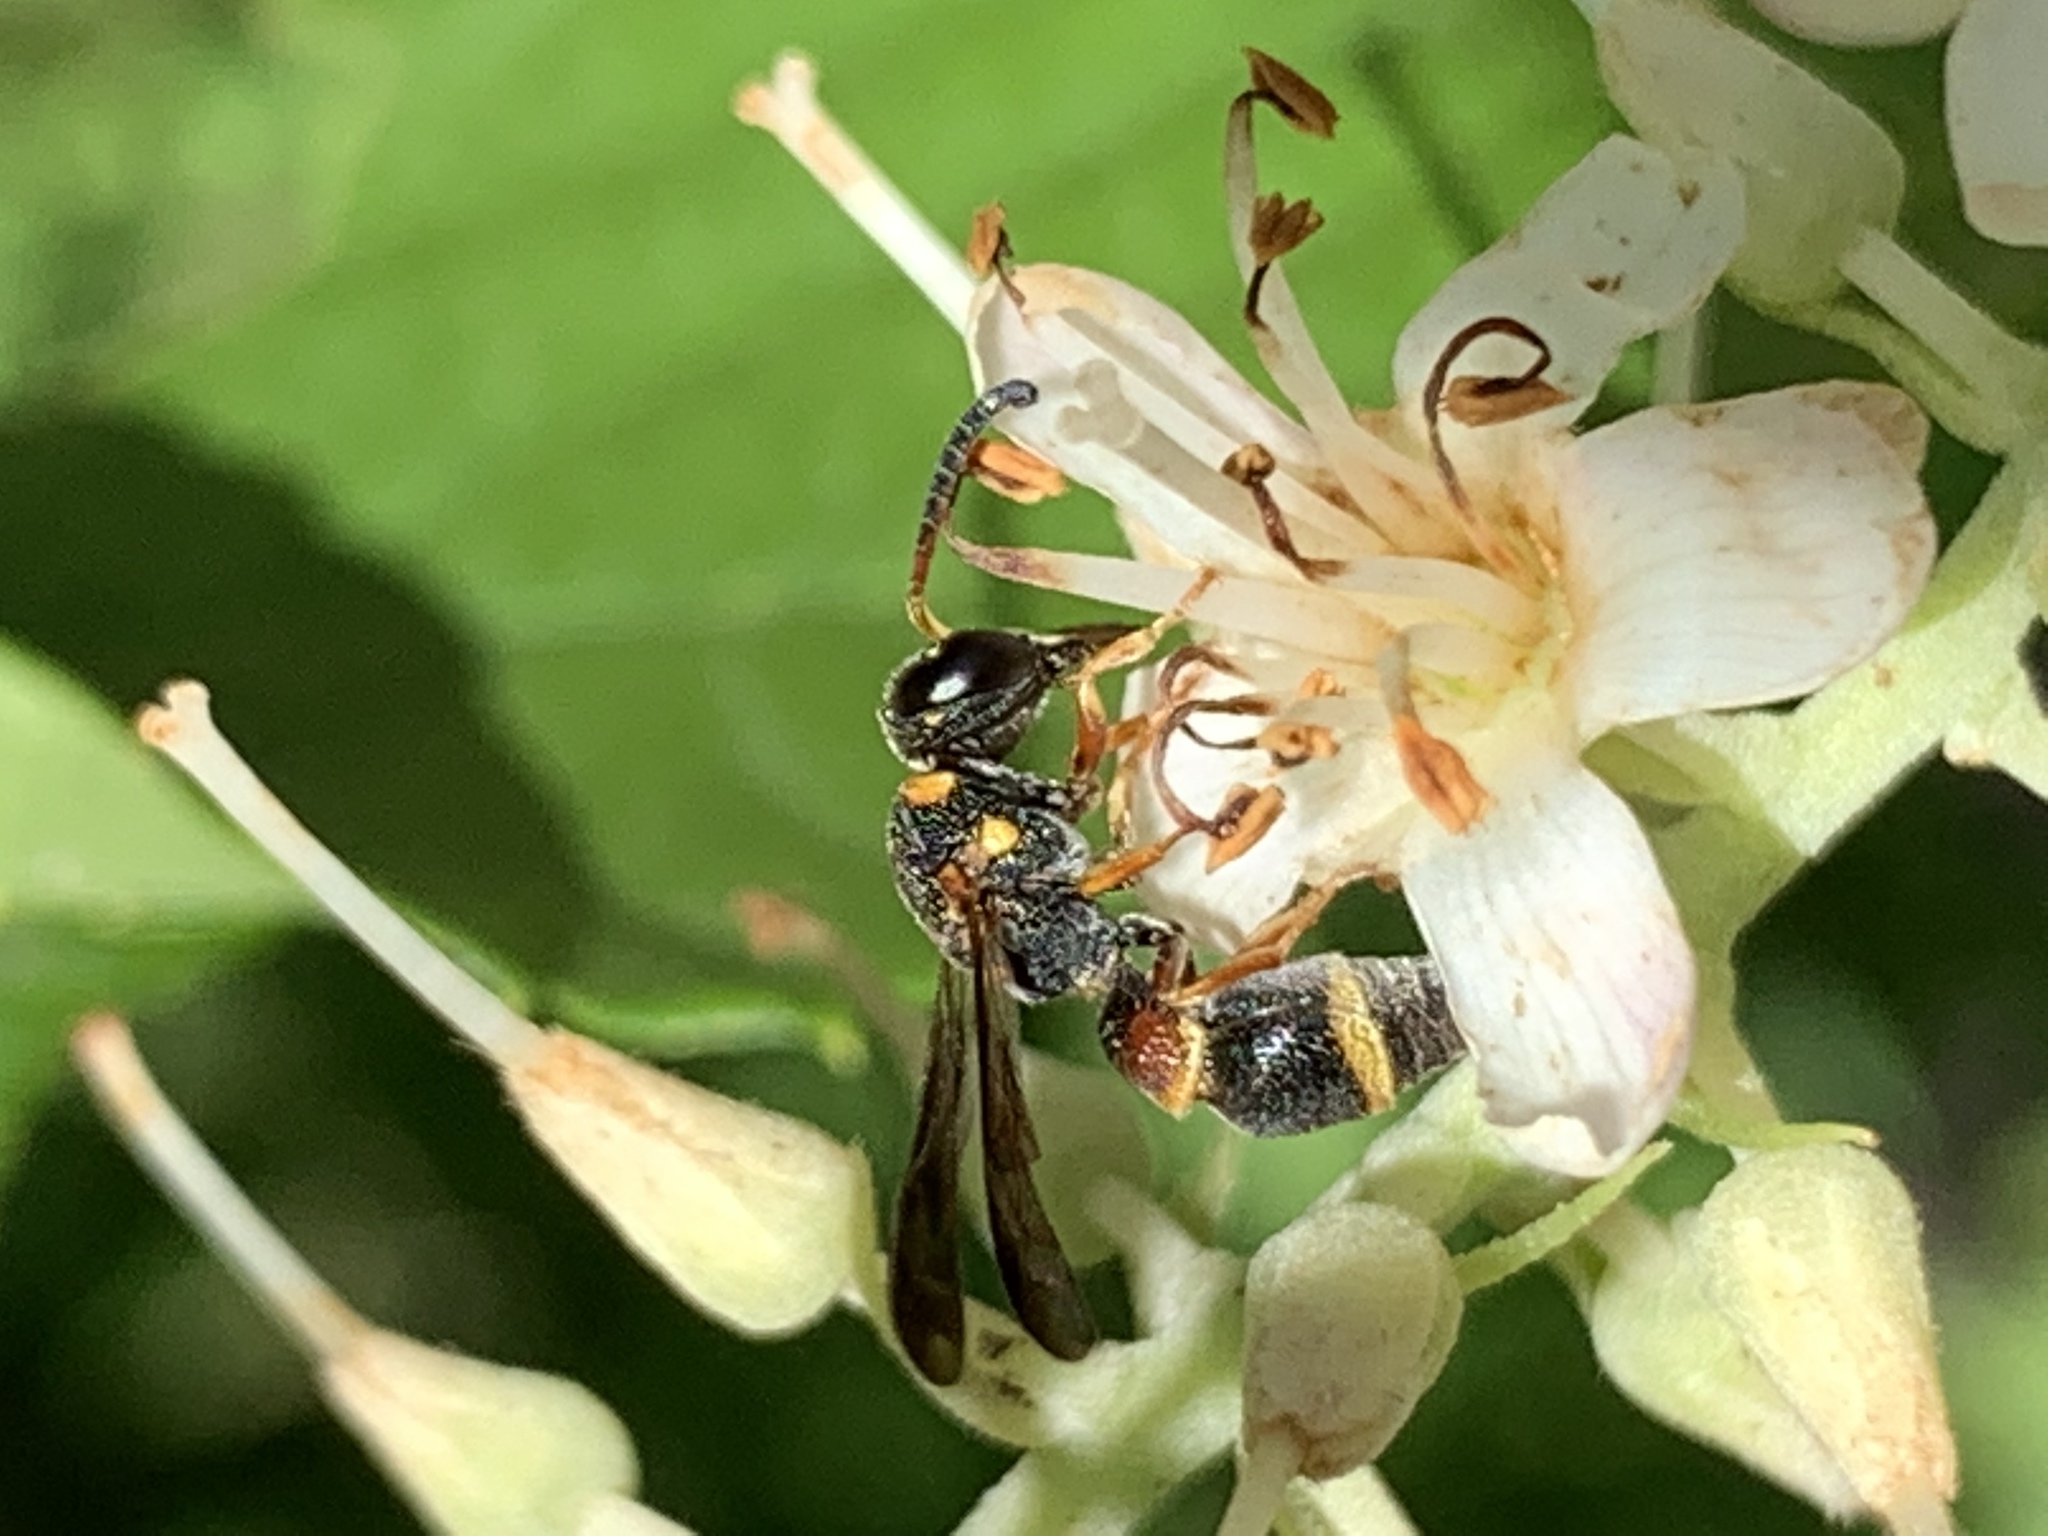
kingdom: Animalia
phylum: Arthropoda
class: Insecta
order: Hymenoptera
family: Eumenidae
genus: Parancistrocerus
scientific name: Parancistrocerus perennis
